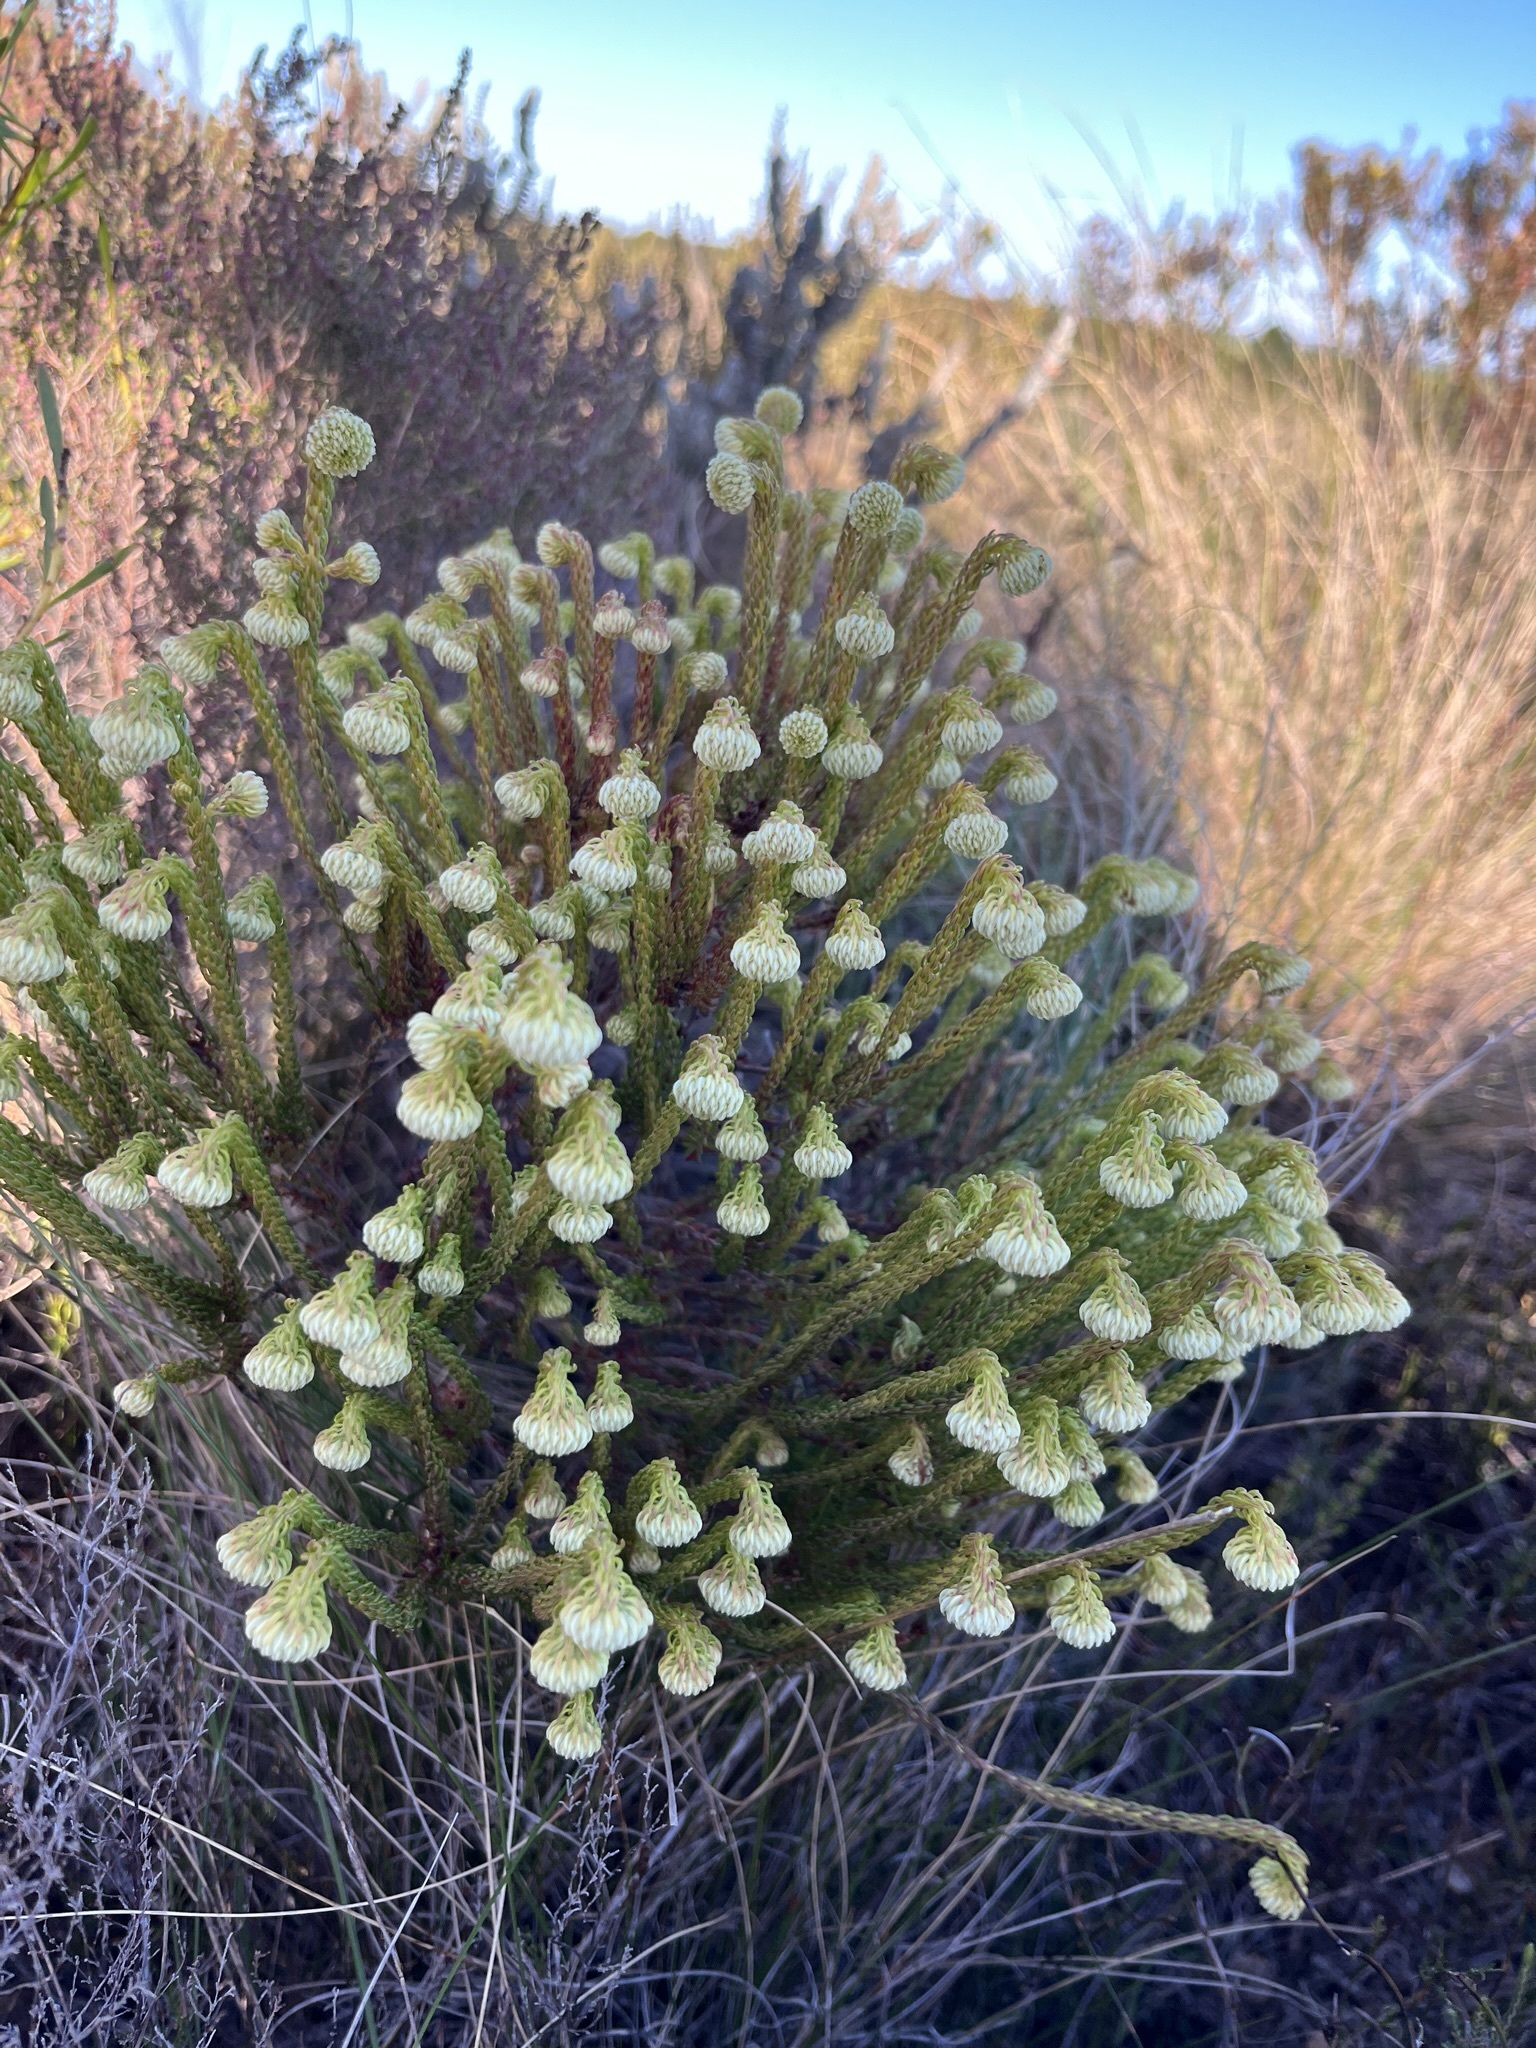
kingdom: Plantae
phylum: Tracheophyta
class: Magnoliopsida
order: Ericales
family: Ericaceae
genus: Erica
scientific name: Erica bruniifolia
